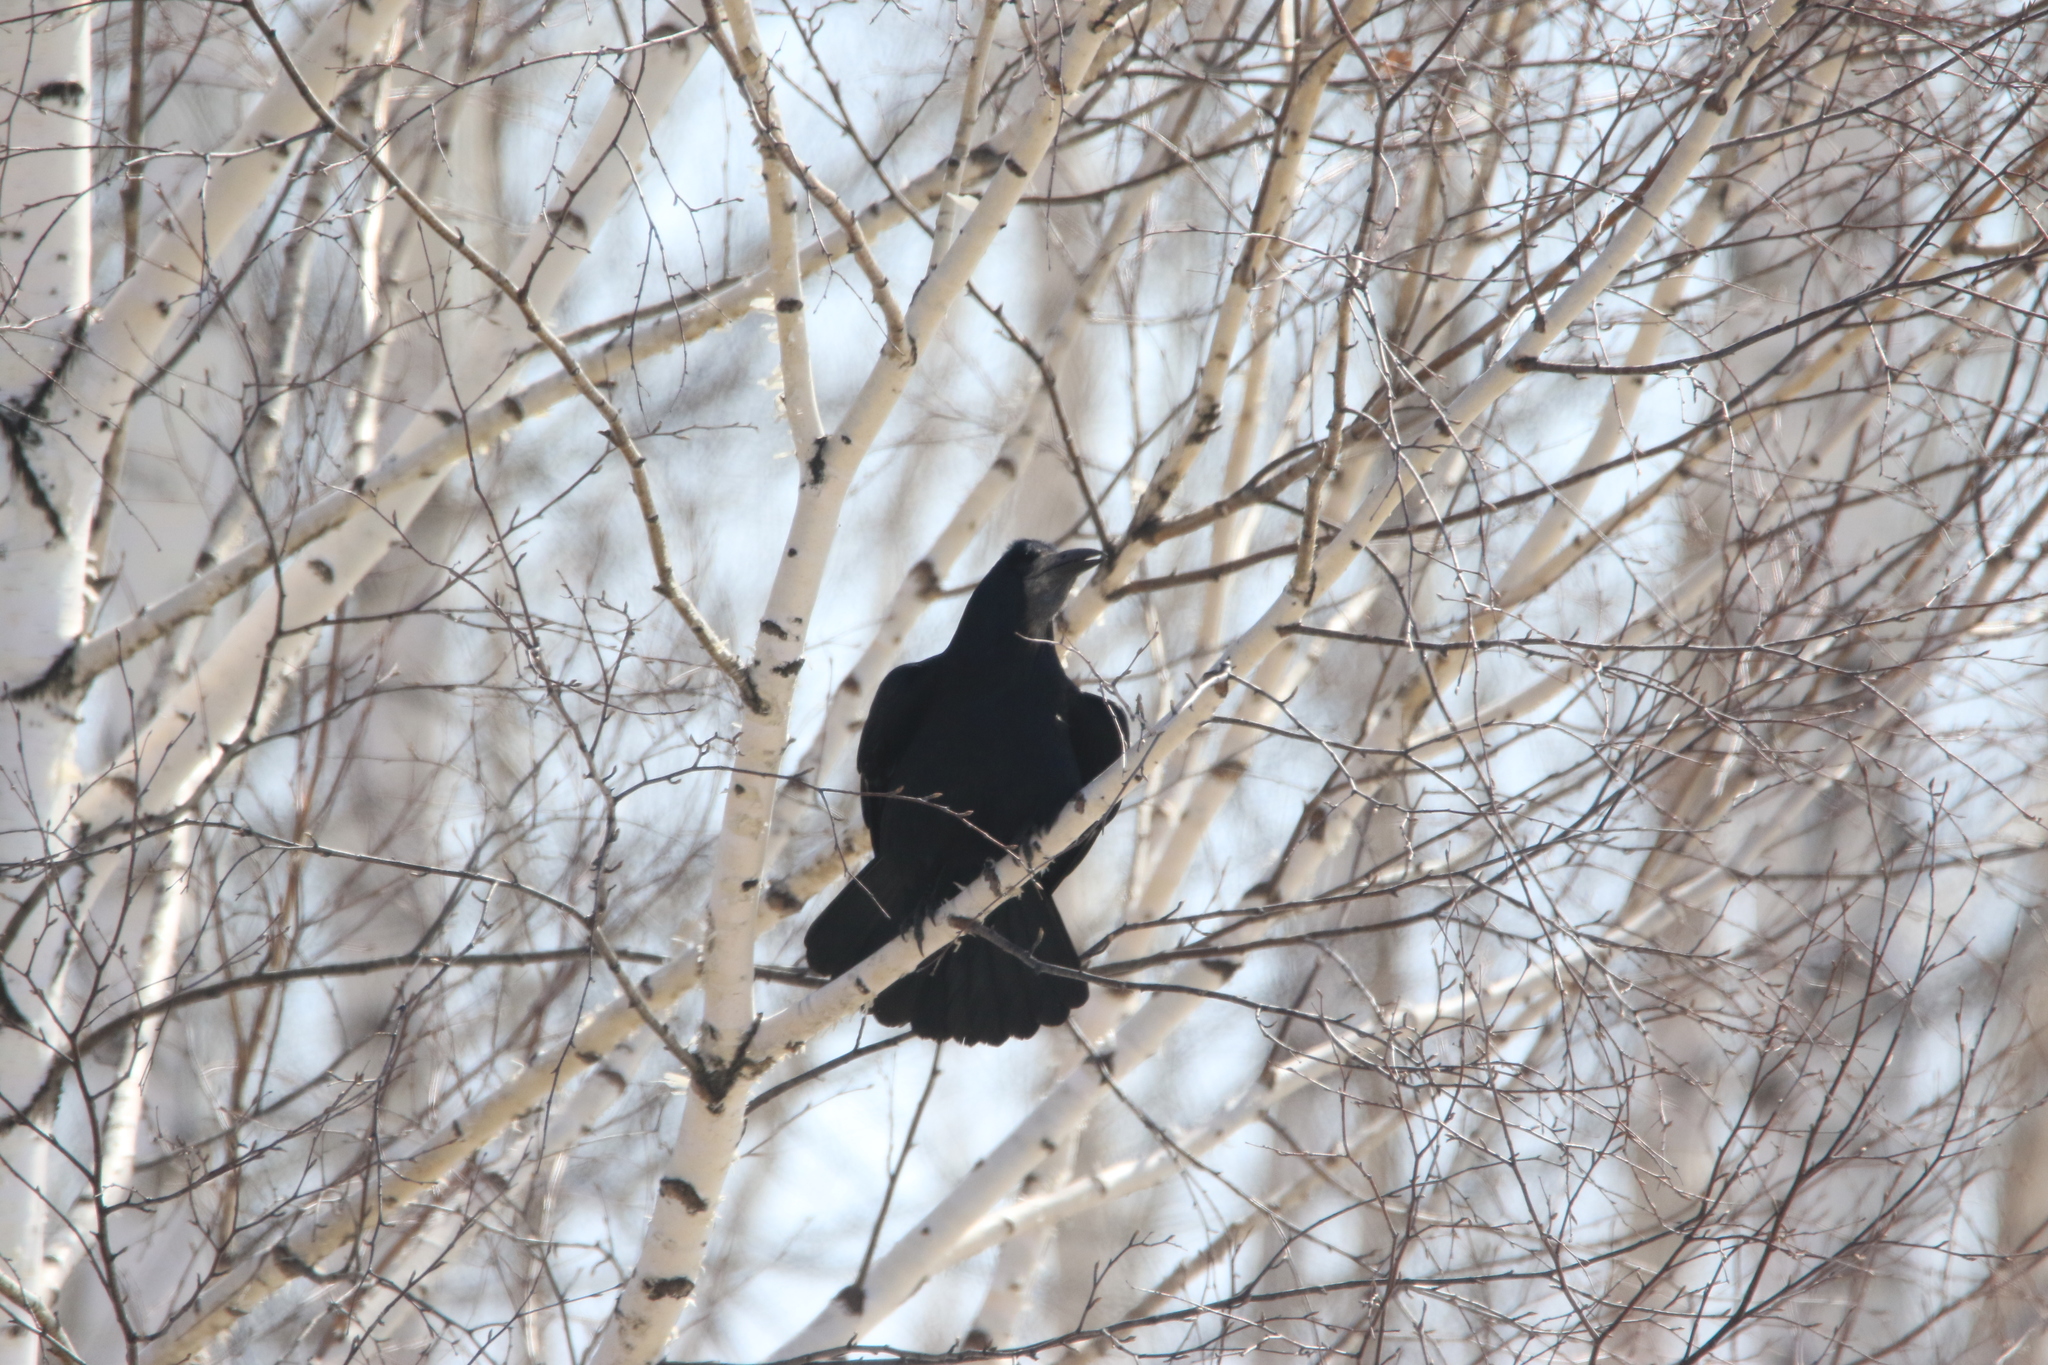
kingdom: Animalia
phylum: Chordata
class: Aves
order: Passeriformes
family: Corvidae
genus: Corvus
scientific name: Corvus frugilegus
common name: Rook
